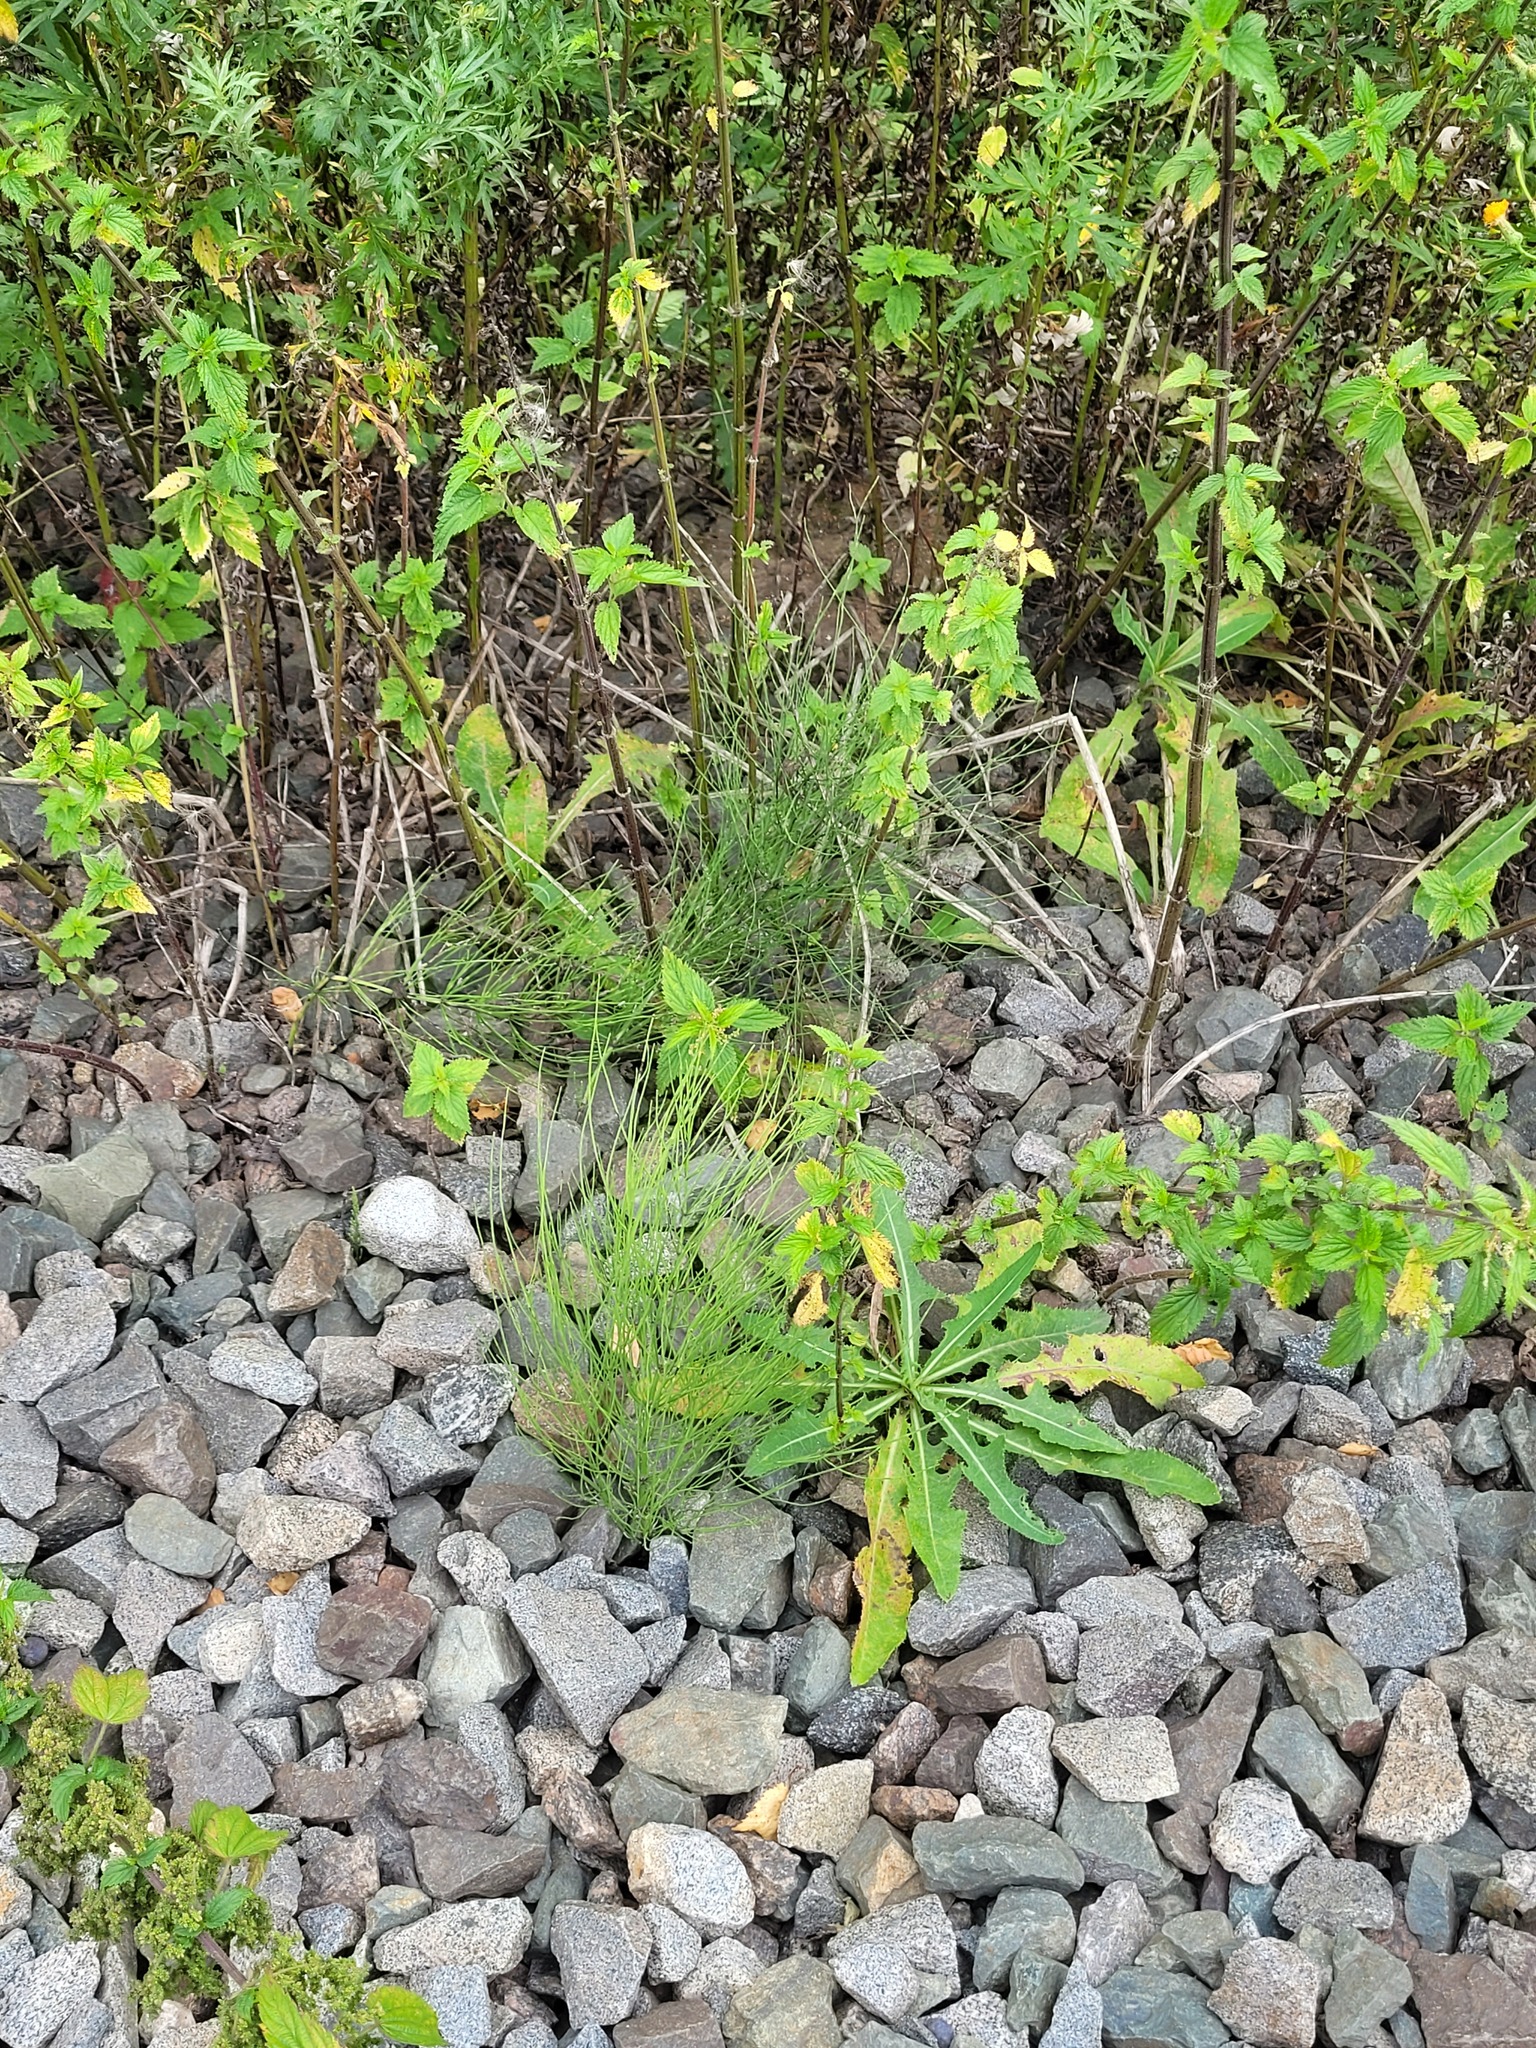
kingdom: Plantae
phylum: Tracheophyta
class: Polypodiopsida
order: Equisetales
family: Equisetaceae
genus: Equisetum
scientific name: Equisetum arvense
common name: Field horsetail
